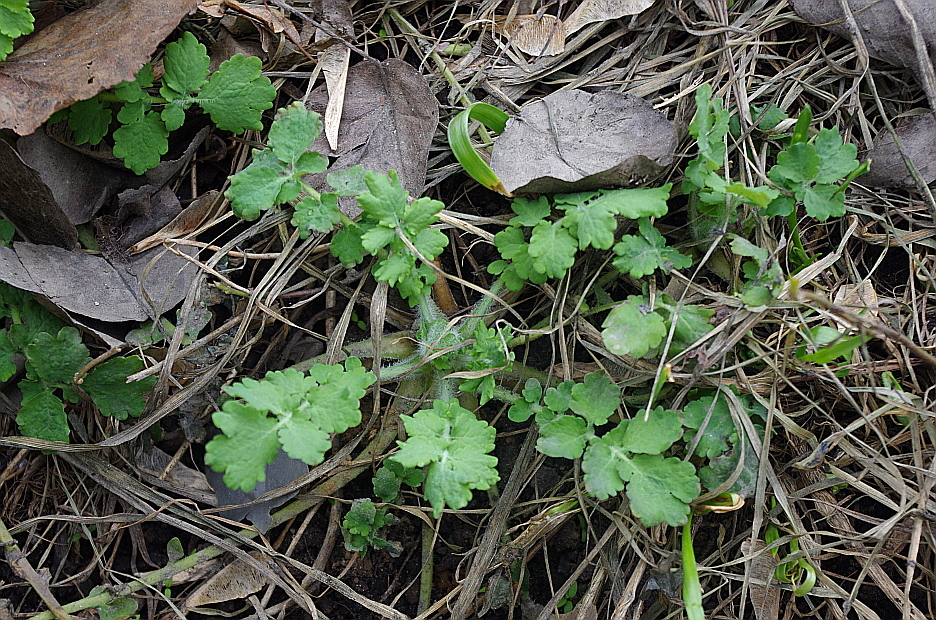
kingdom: Plantae
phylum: Tracheophyta
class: Magnoliopsida
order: Ranunculales
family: Papaveraceae
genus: Chelidonium
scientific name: Chelidonium majus
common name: Greater celandine
